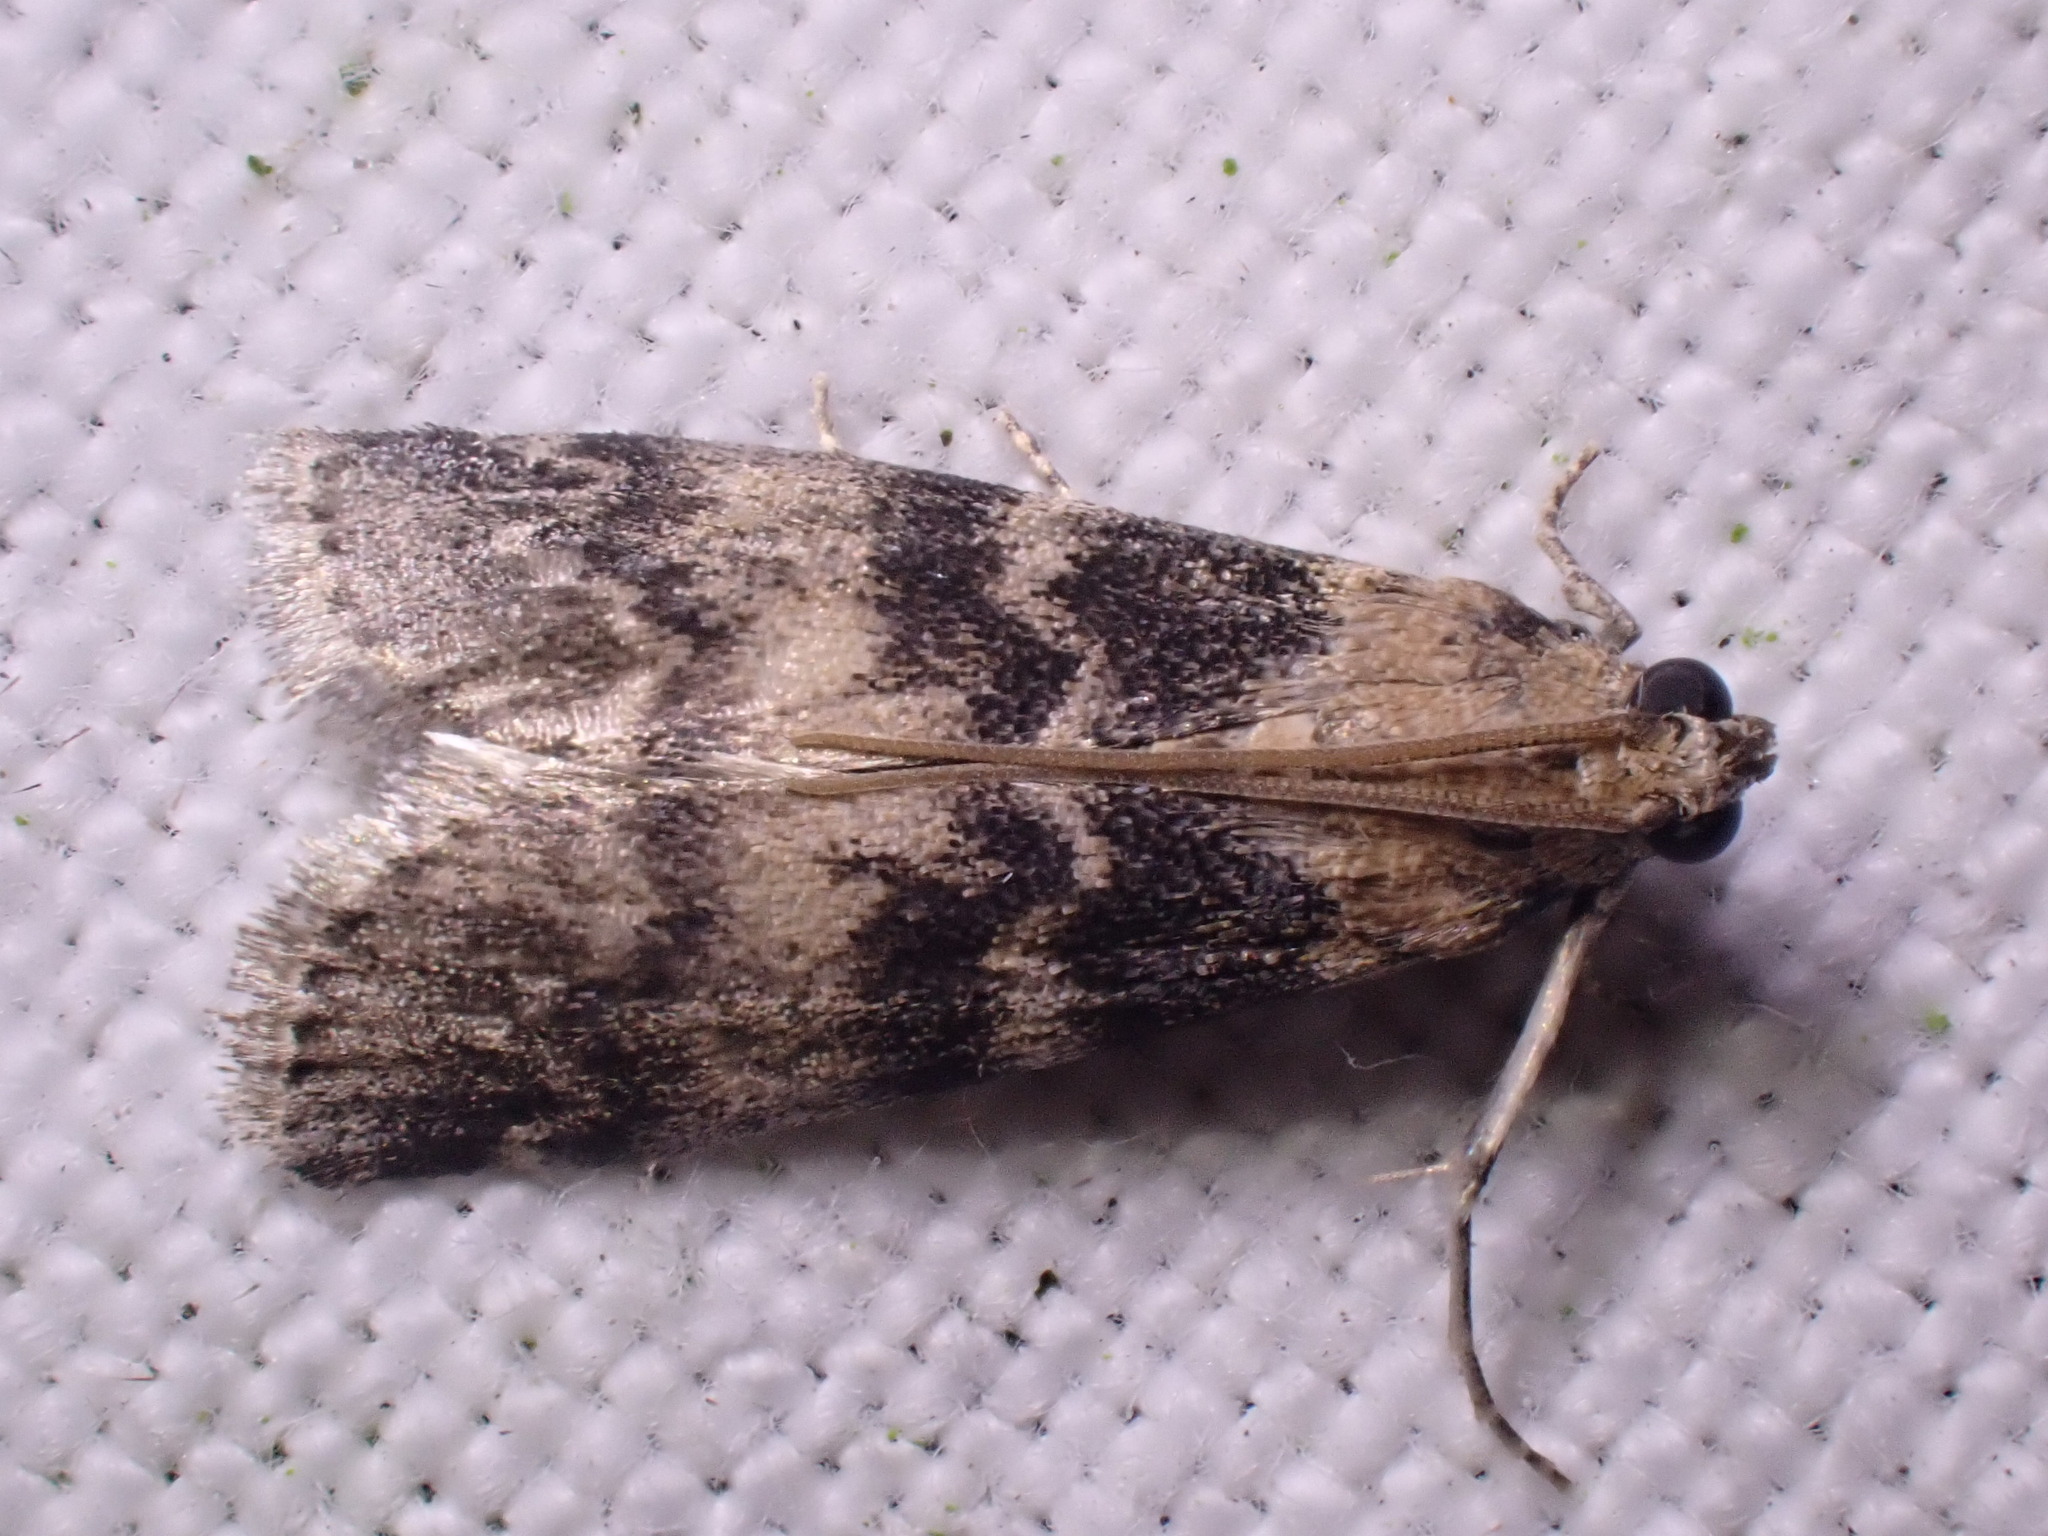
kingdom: Animalia
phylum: Arthropoda
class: Insecta
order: Lepidoptera
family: Pyralidae
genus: Euzophera
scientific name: Euzophera pinguis
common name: Ash-bark knot-horn
